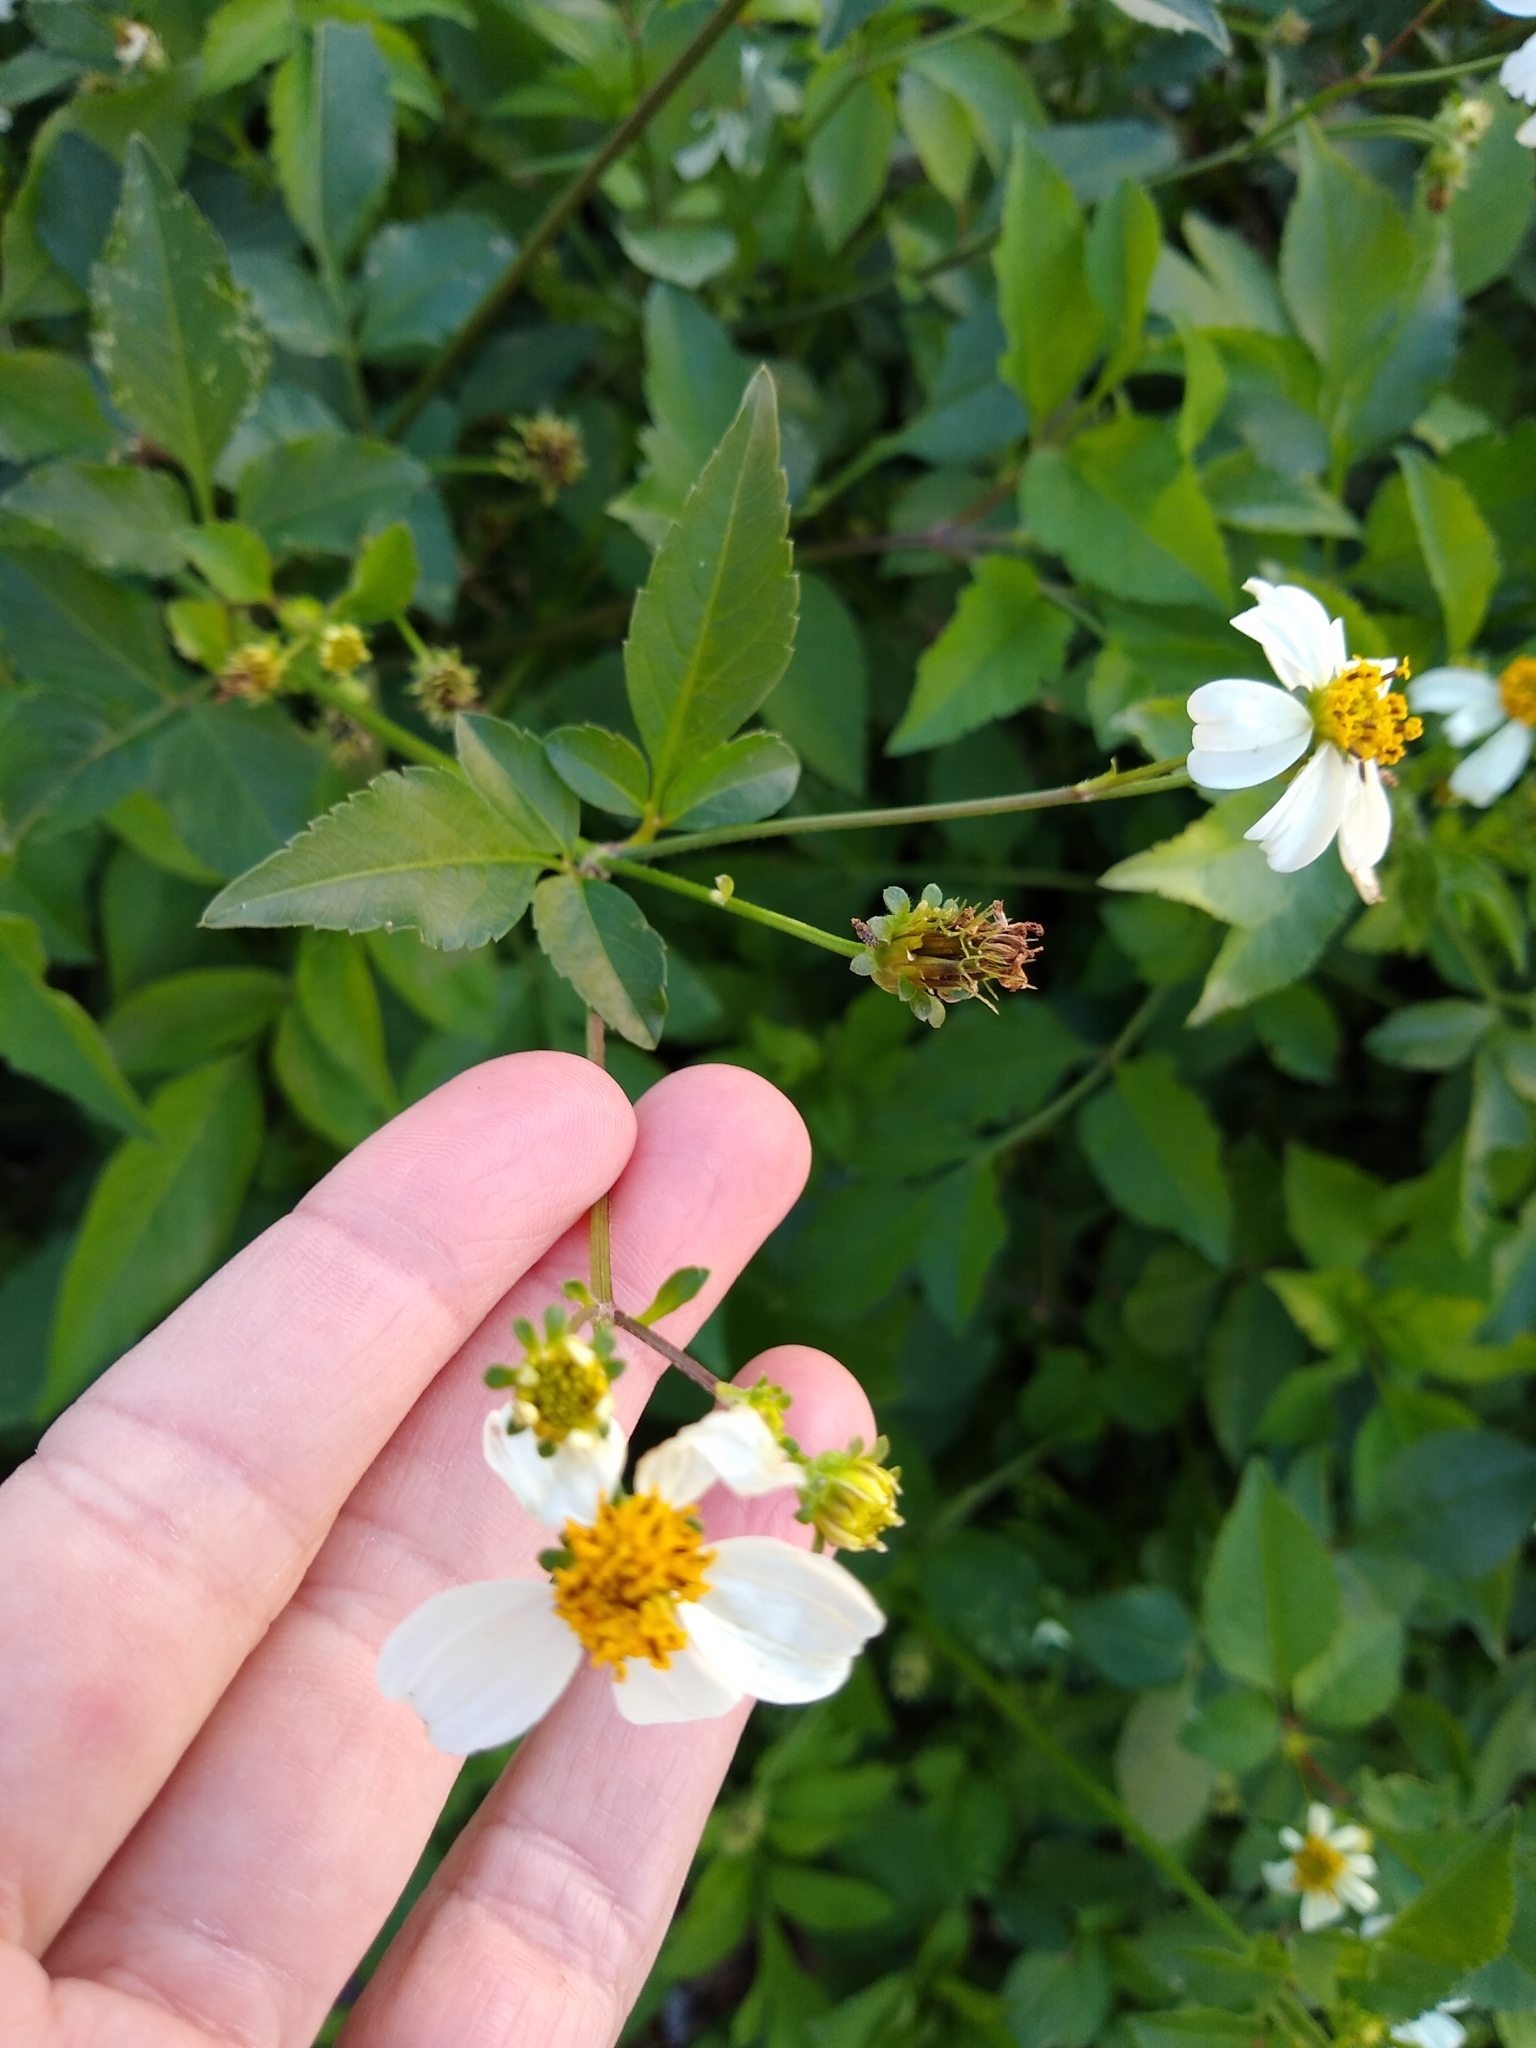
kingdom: Plantae
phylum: Tracheophyta
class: Magnoliopsida
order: Asterales
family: Asteraceae
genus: Bidens
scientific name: Bidens alba
